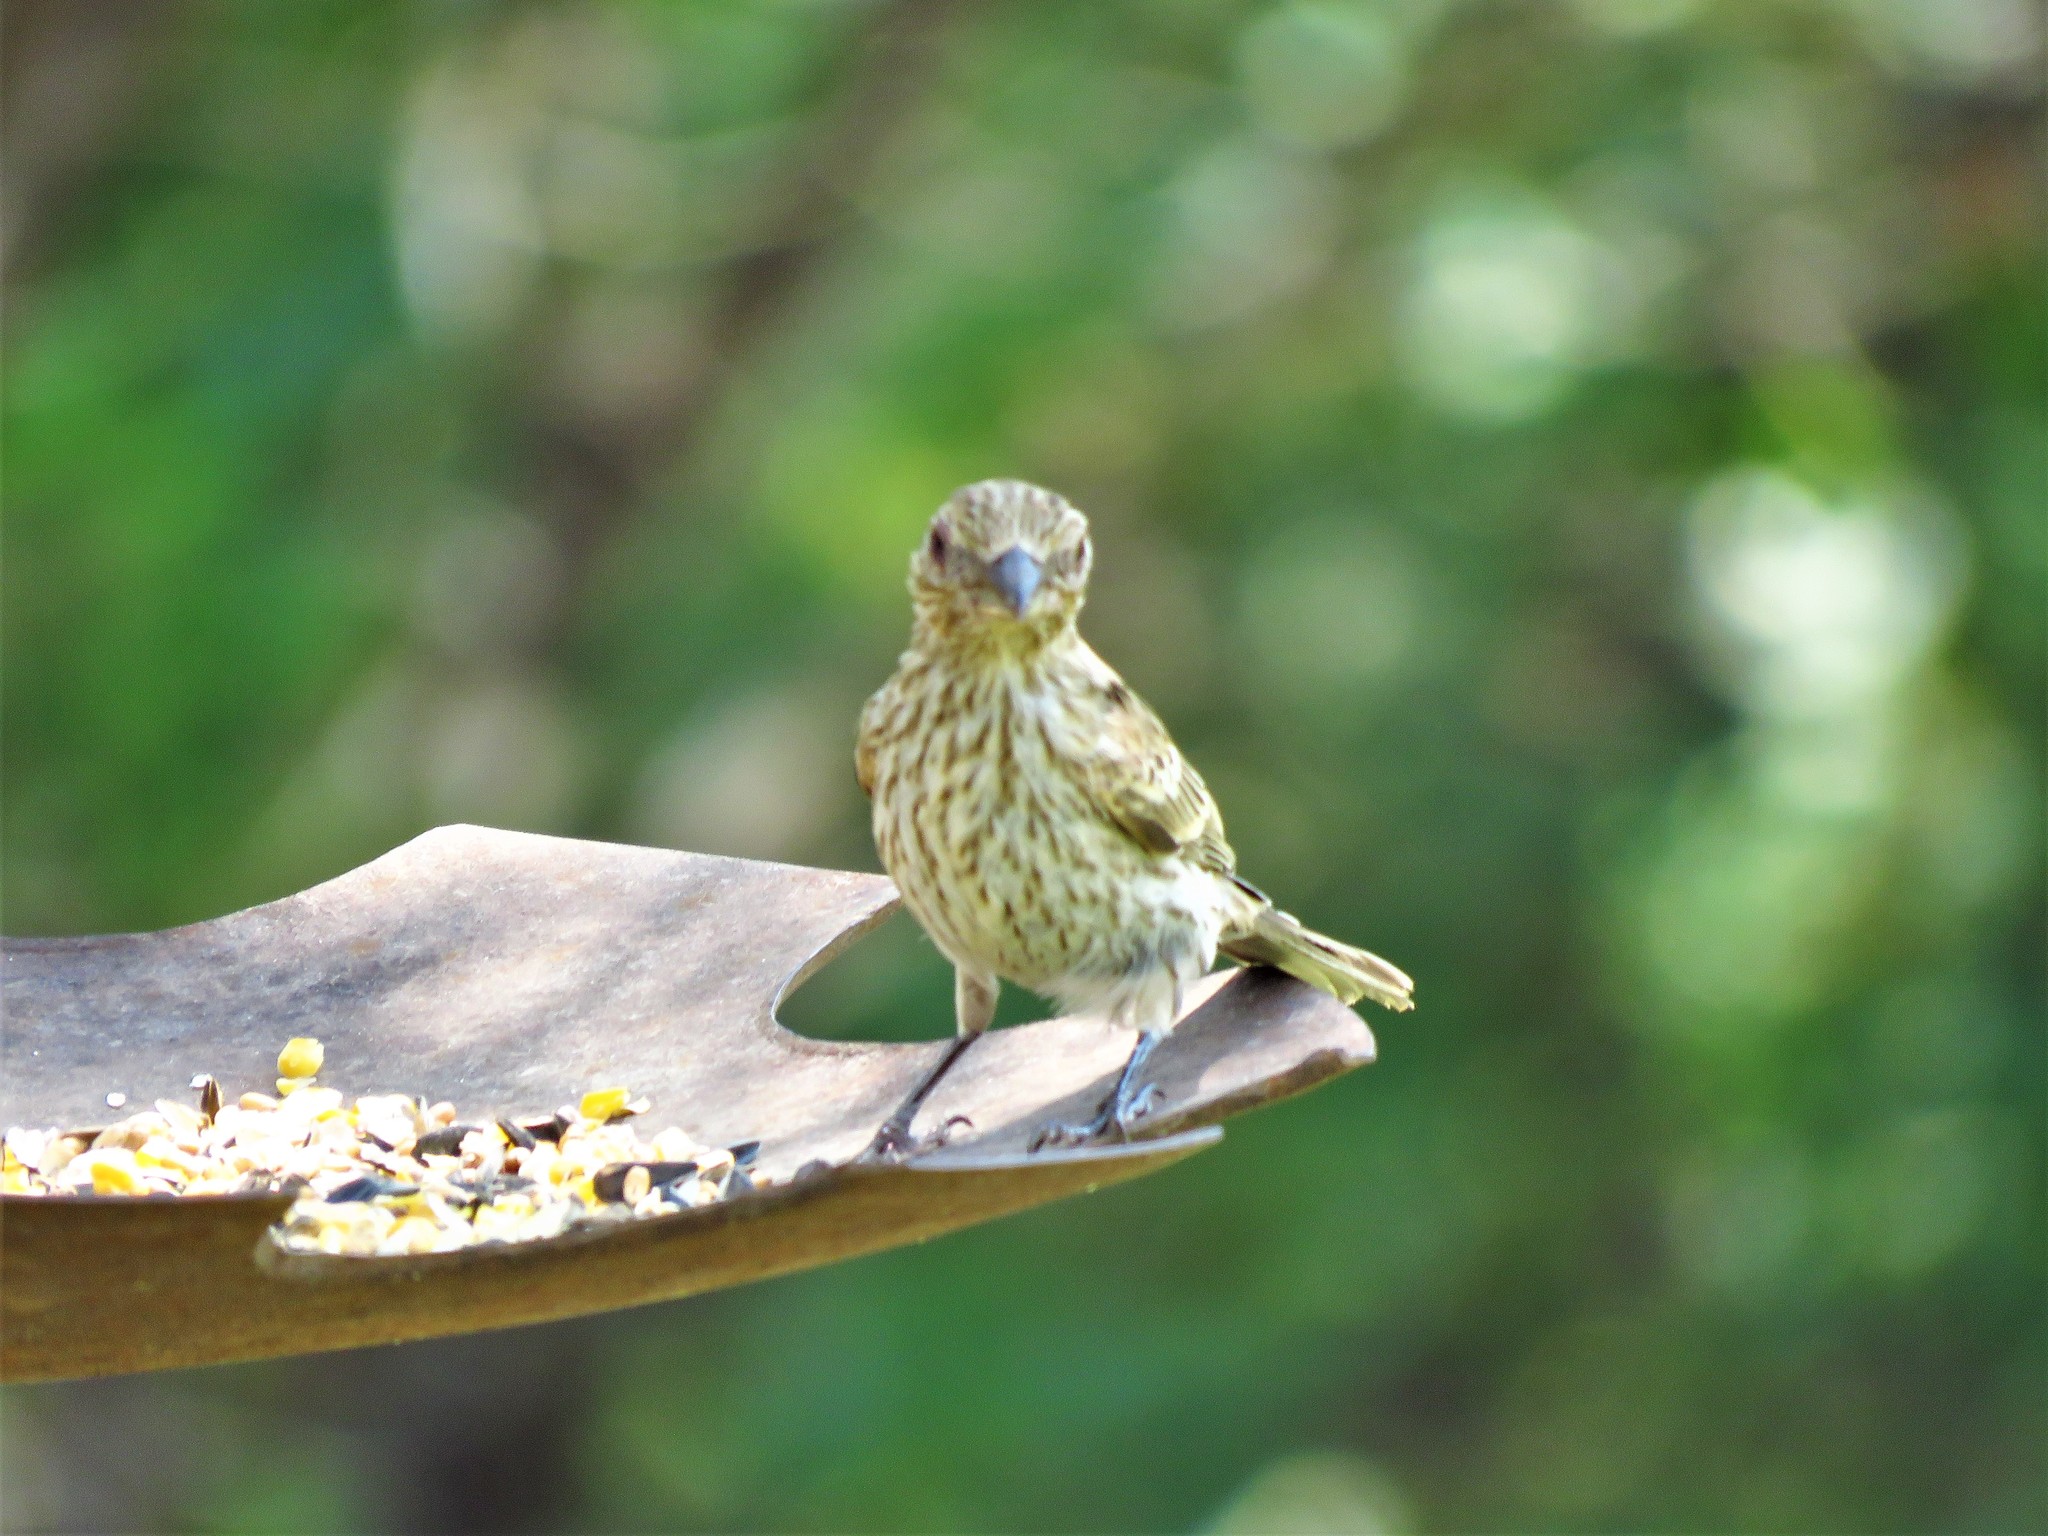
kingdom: Animalia
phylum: Chordata
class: Aves
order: Passeriformes
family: Fringillidae
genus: Haemorhous
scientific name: Haemorhous mexicanus
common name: House finch
